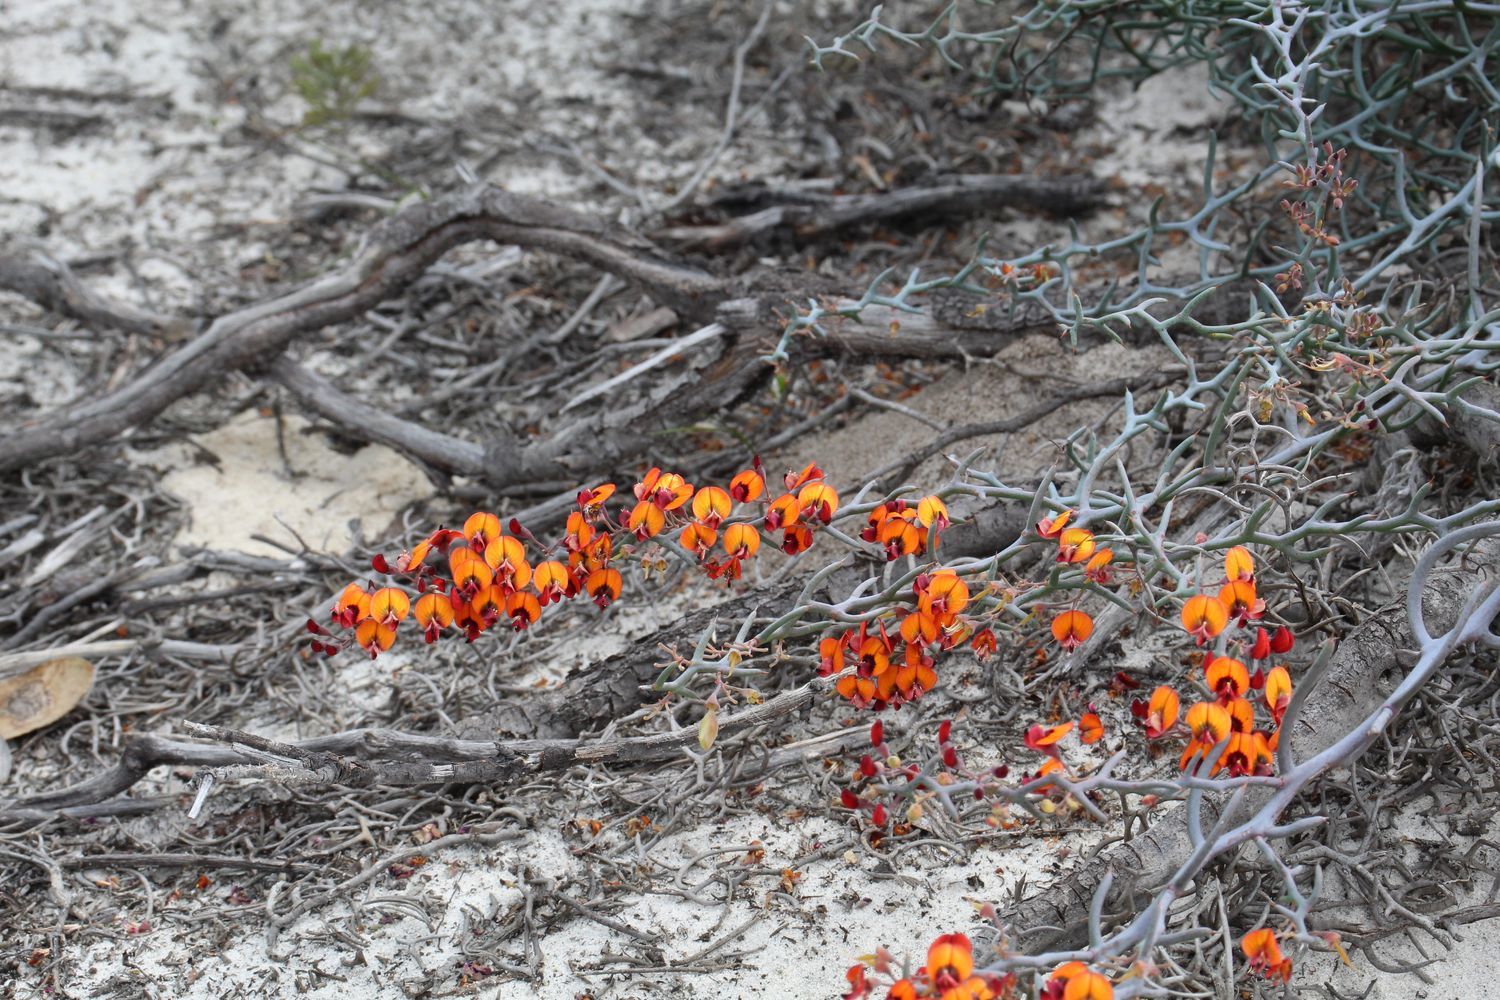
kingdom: Plantae
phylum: Tracheophyta
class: Magnoliopsida
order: Fabales
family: Fabaceae
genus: Daviesia
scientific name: Daviesia incrassata
